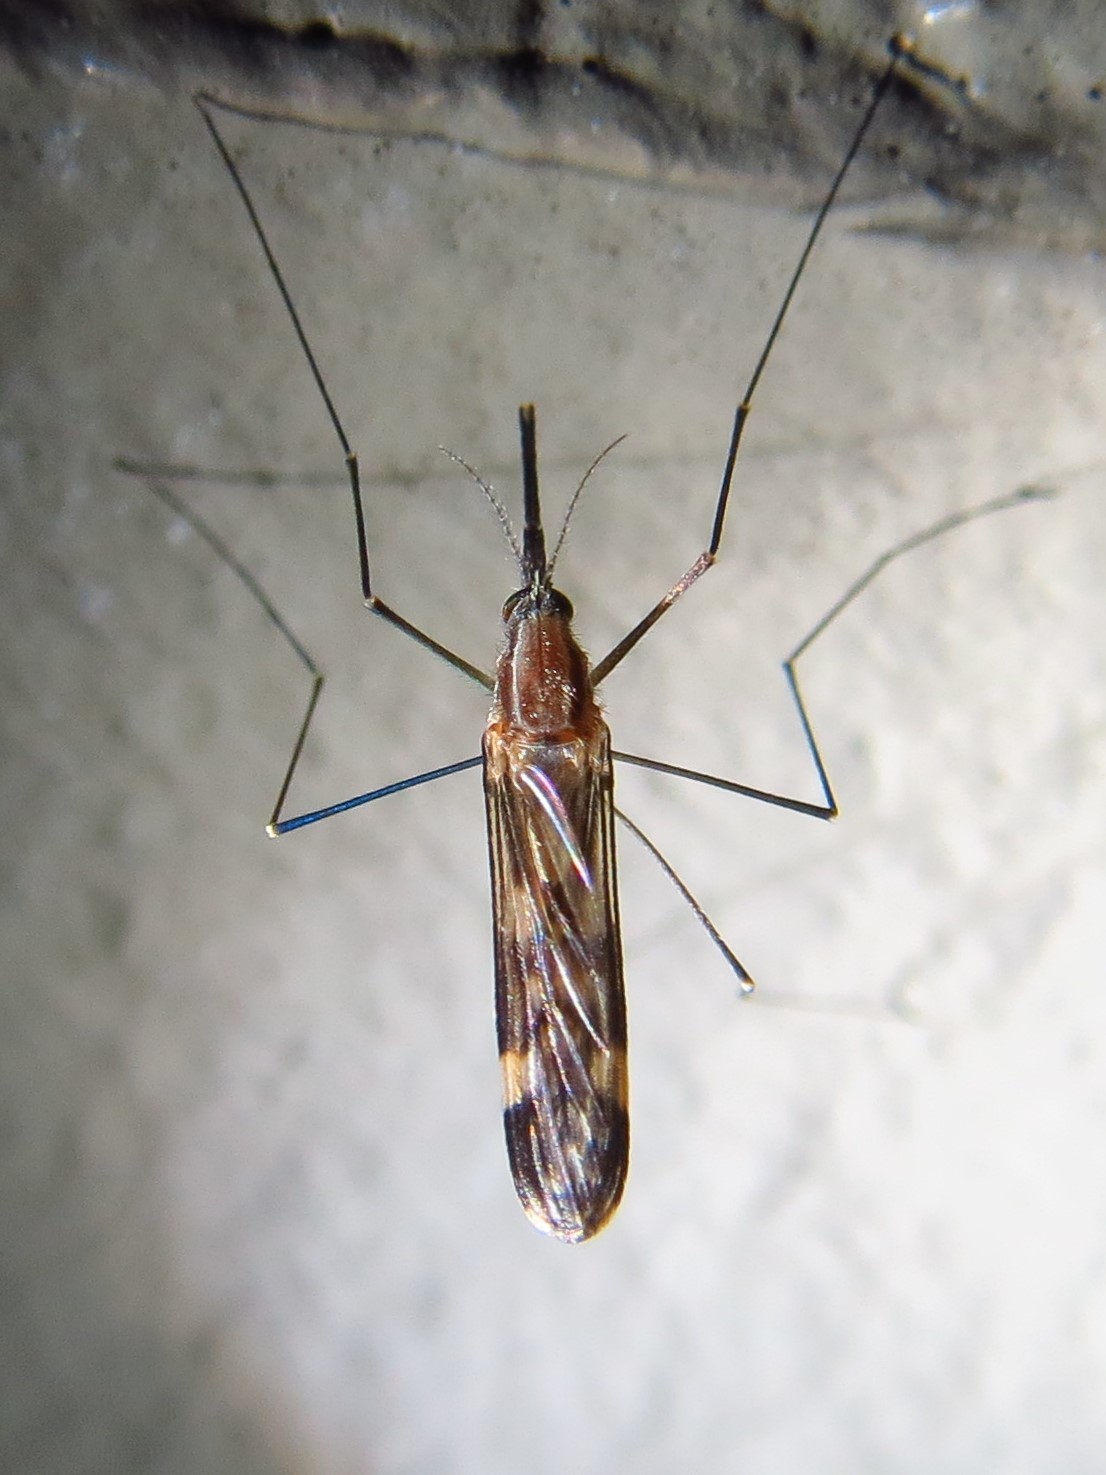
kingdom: Animalia
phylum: Arthropoda
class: Insecta
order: Diptera
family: Culicidae
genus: Anopheles
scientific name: Anopheles punctipennis
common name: Woodland malaria mosquito
